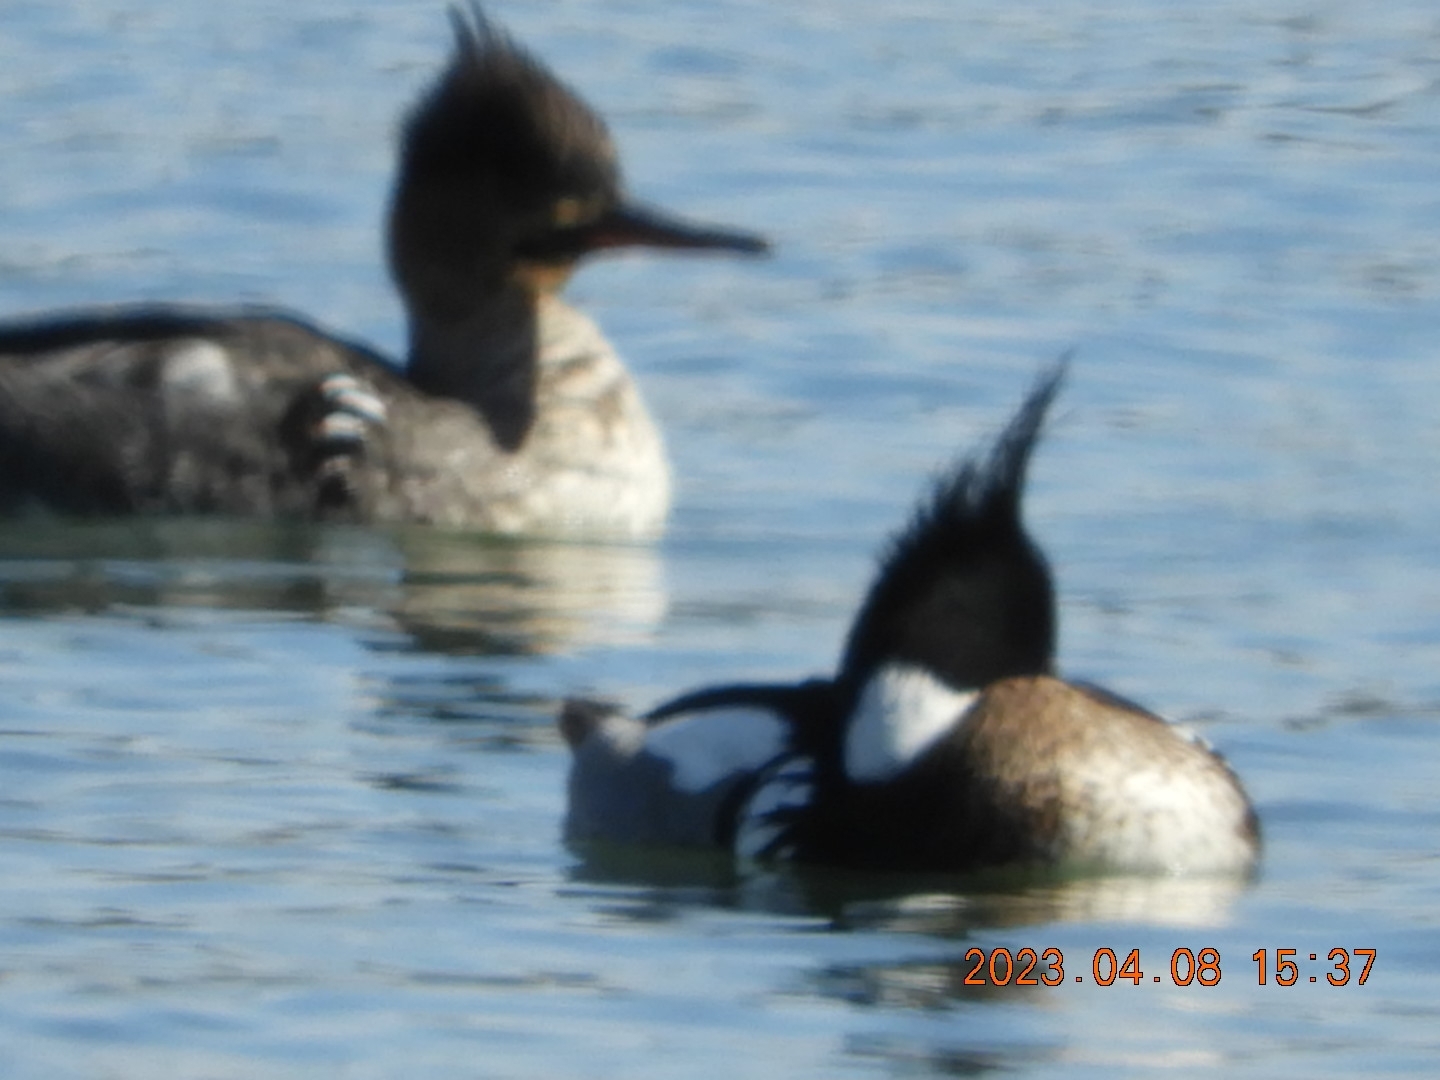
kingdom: Animalia
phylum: Chordata
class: Aves
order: Anseriformes
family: Anatidae
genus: Mergus
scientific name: Mergus serrator
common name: Red-breasted merganser
